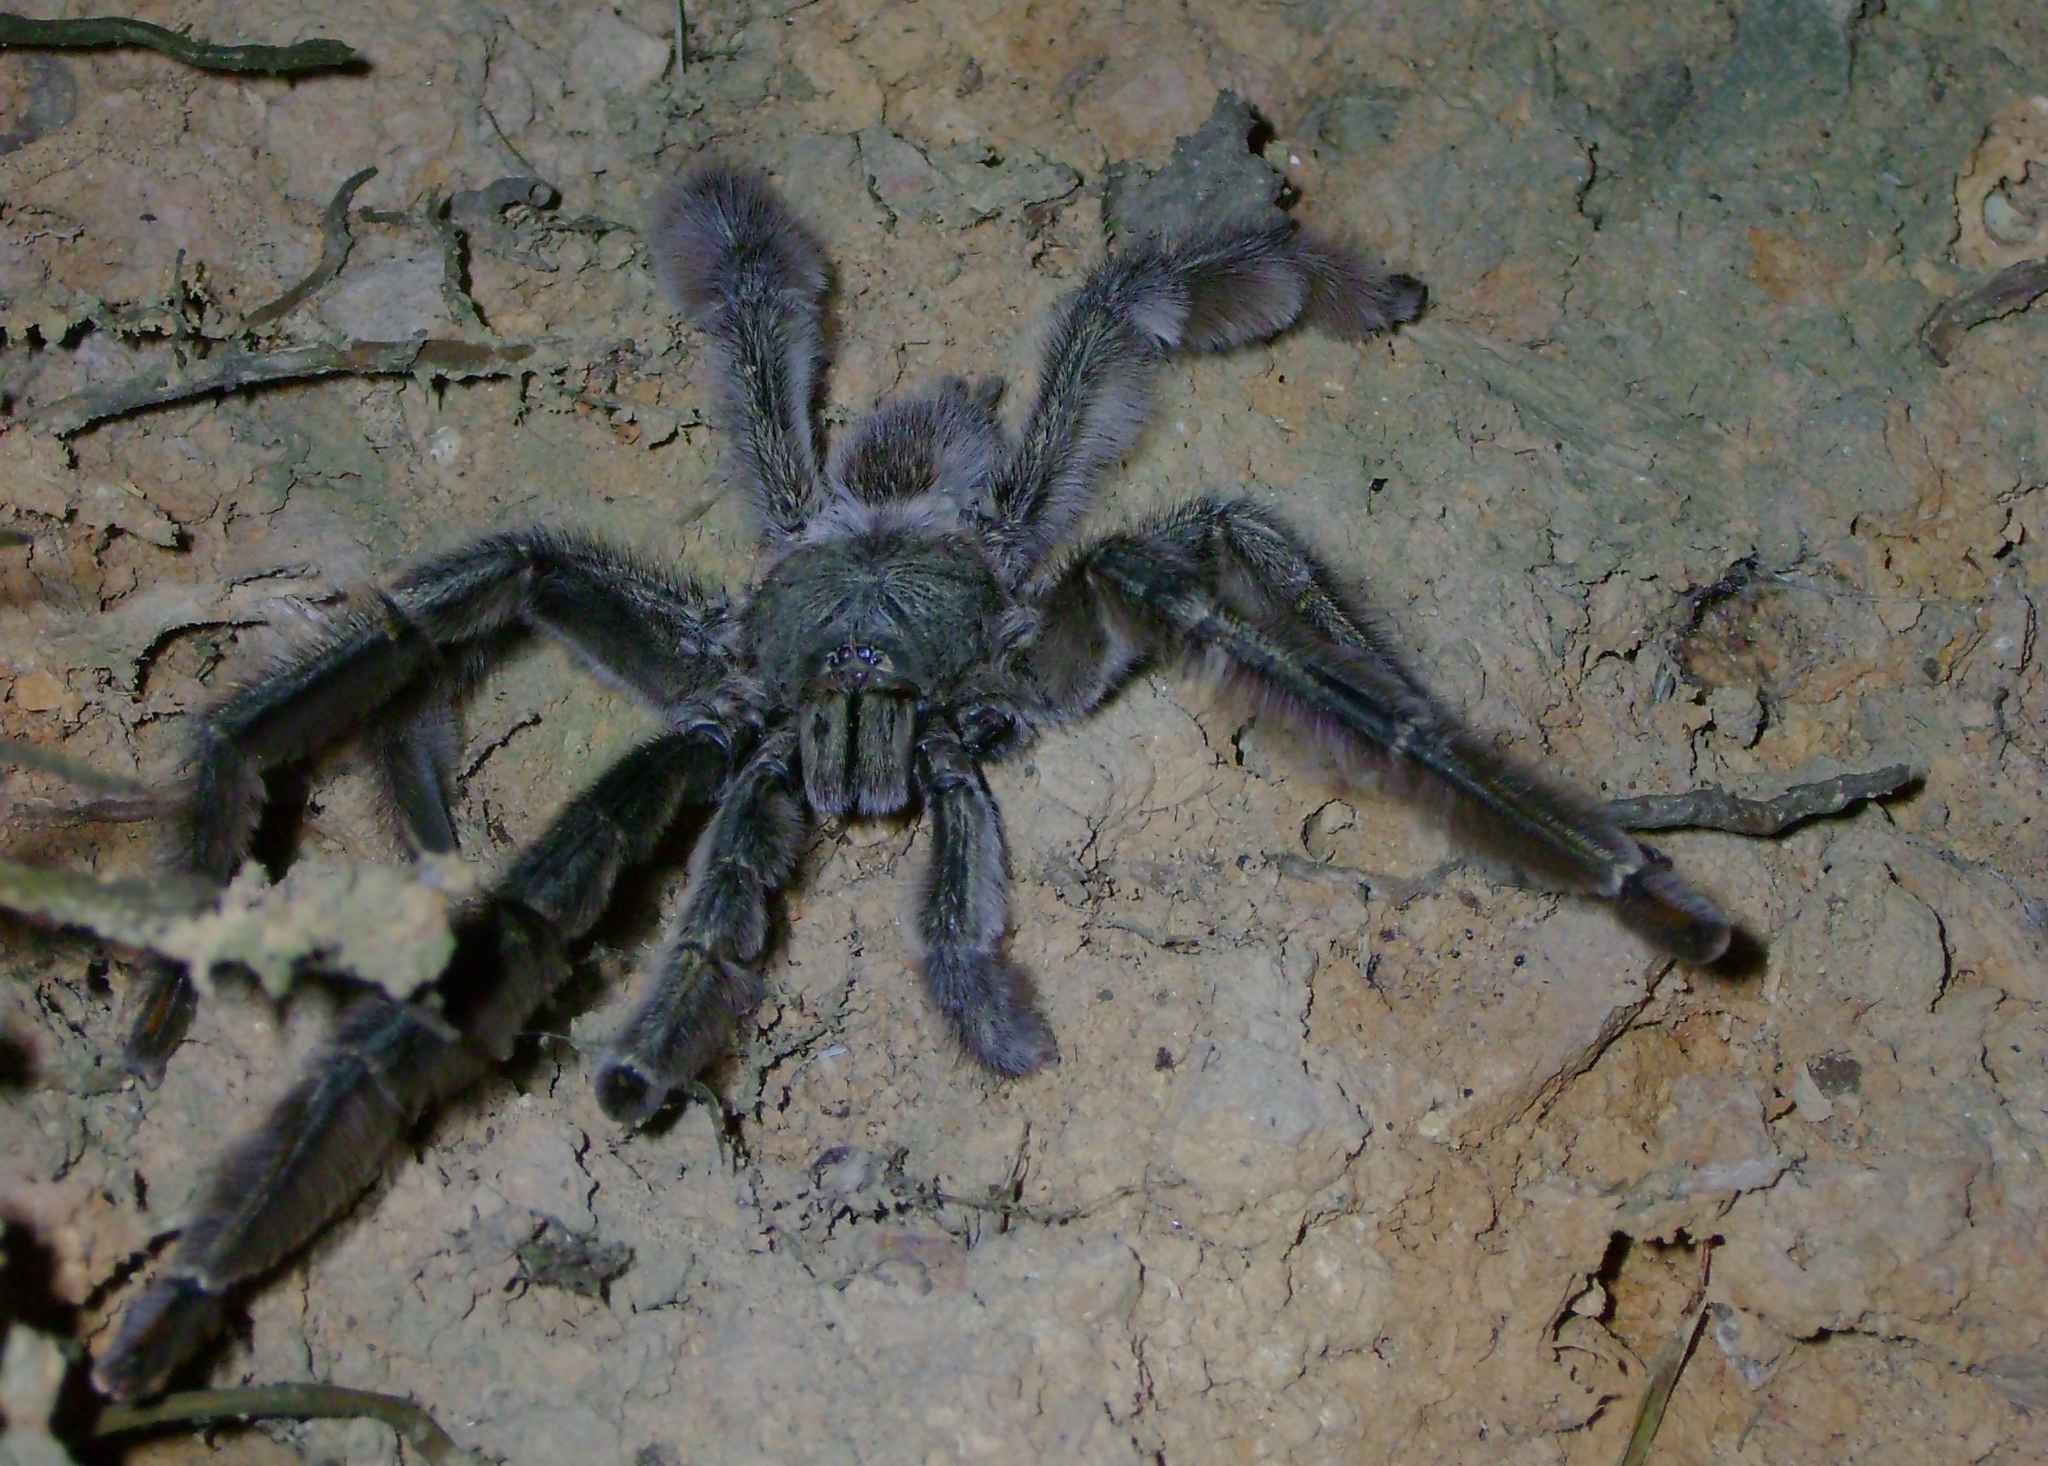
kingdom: Animalia
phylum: Arthropoda
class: Arachnida
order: Araneae
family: Theraphosidae
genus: Psalmopoeus
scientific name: Psalmopoeus cambridgei
